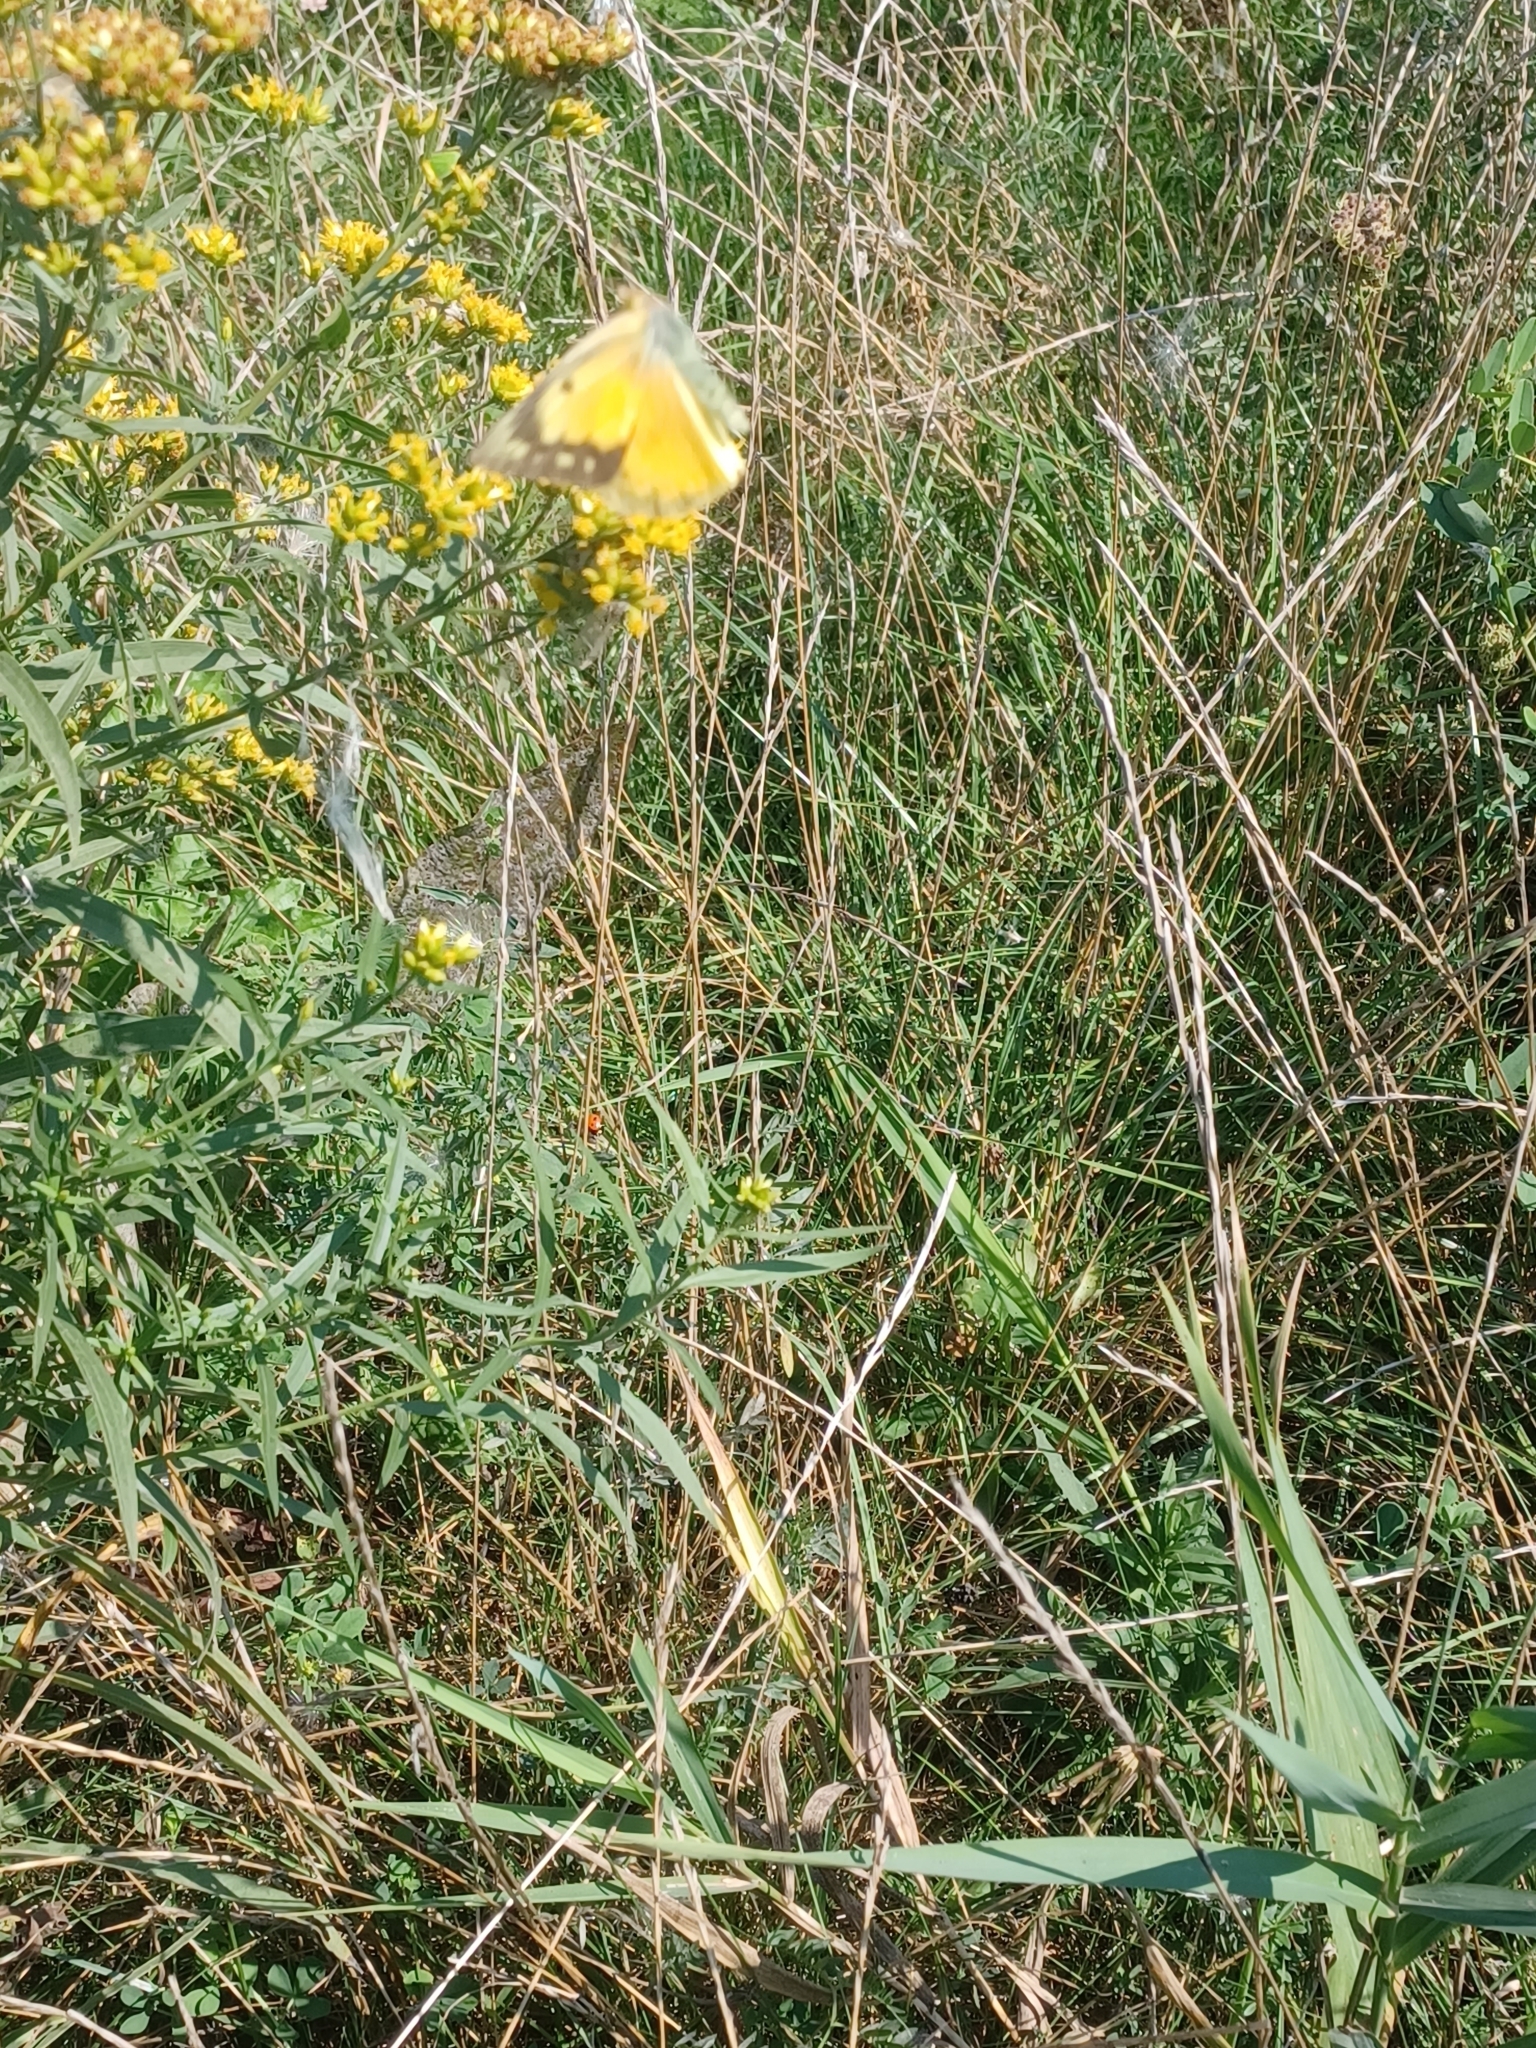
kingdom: Animalia
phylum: Arthropoda
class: Insecta
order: Lepidoptera
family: Pieridae
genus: Colias
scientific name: Colias eurytheme
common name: Alfalfa butterfly
